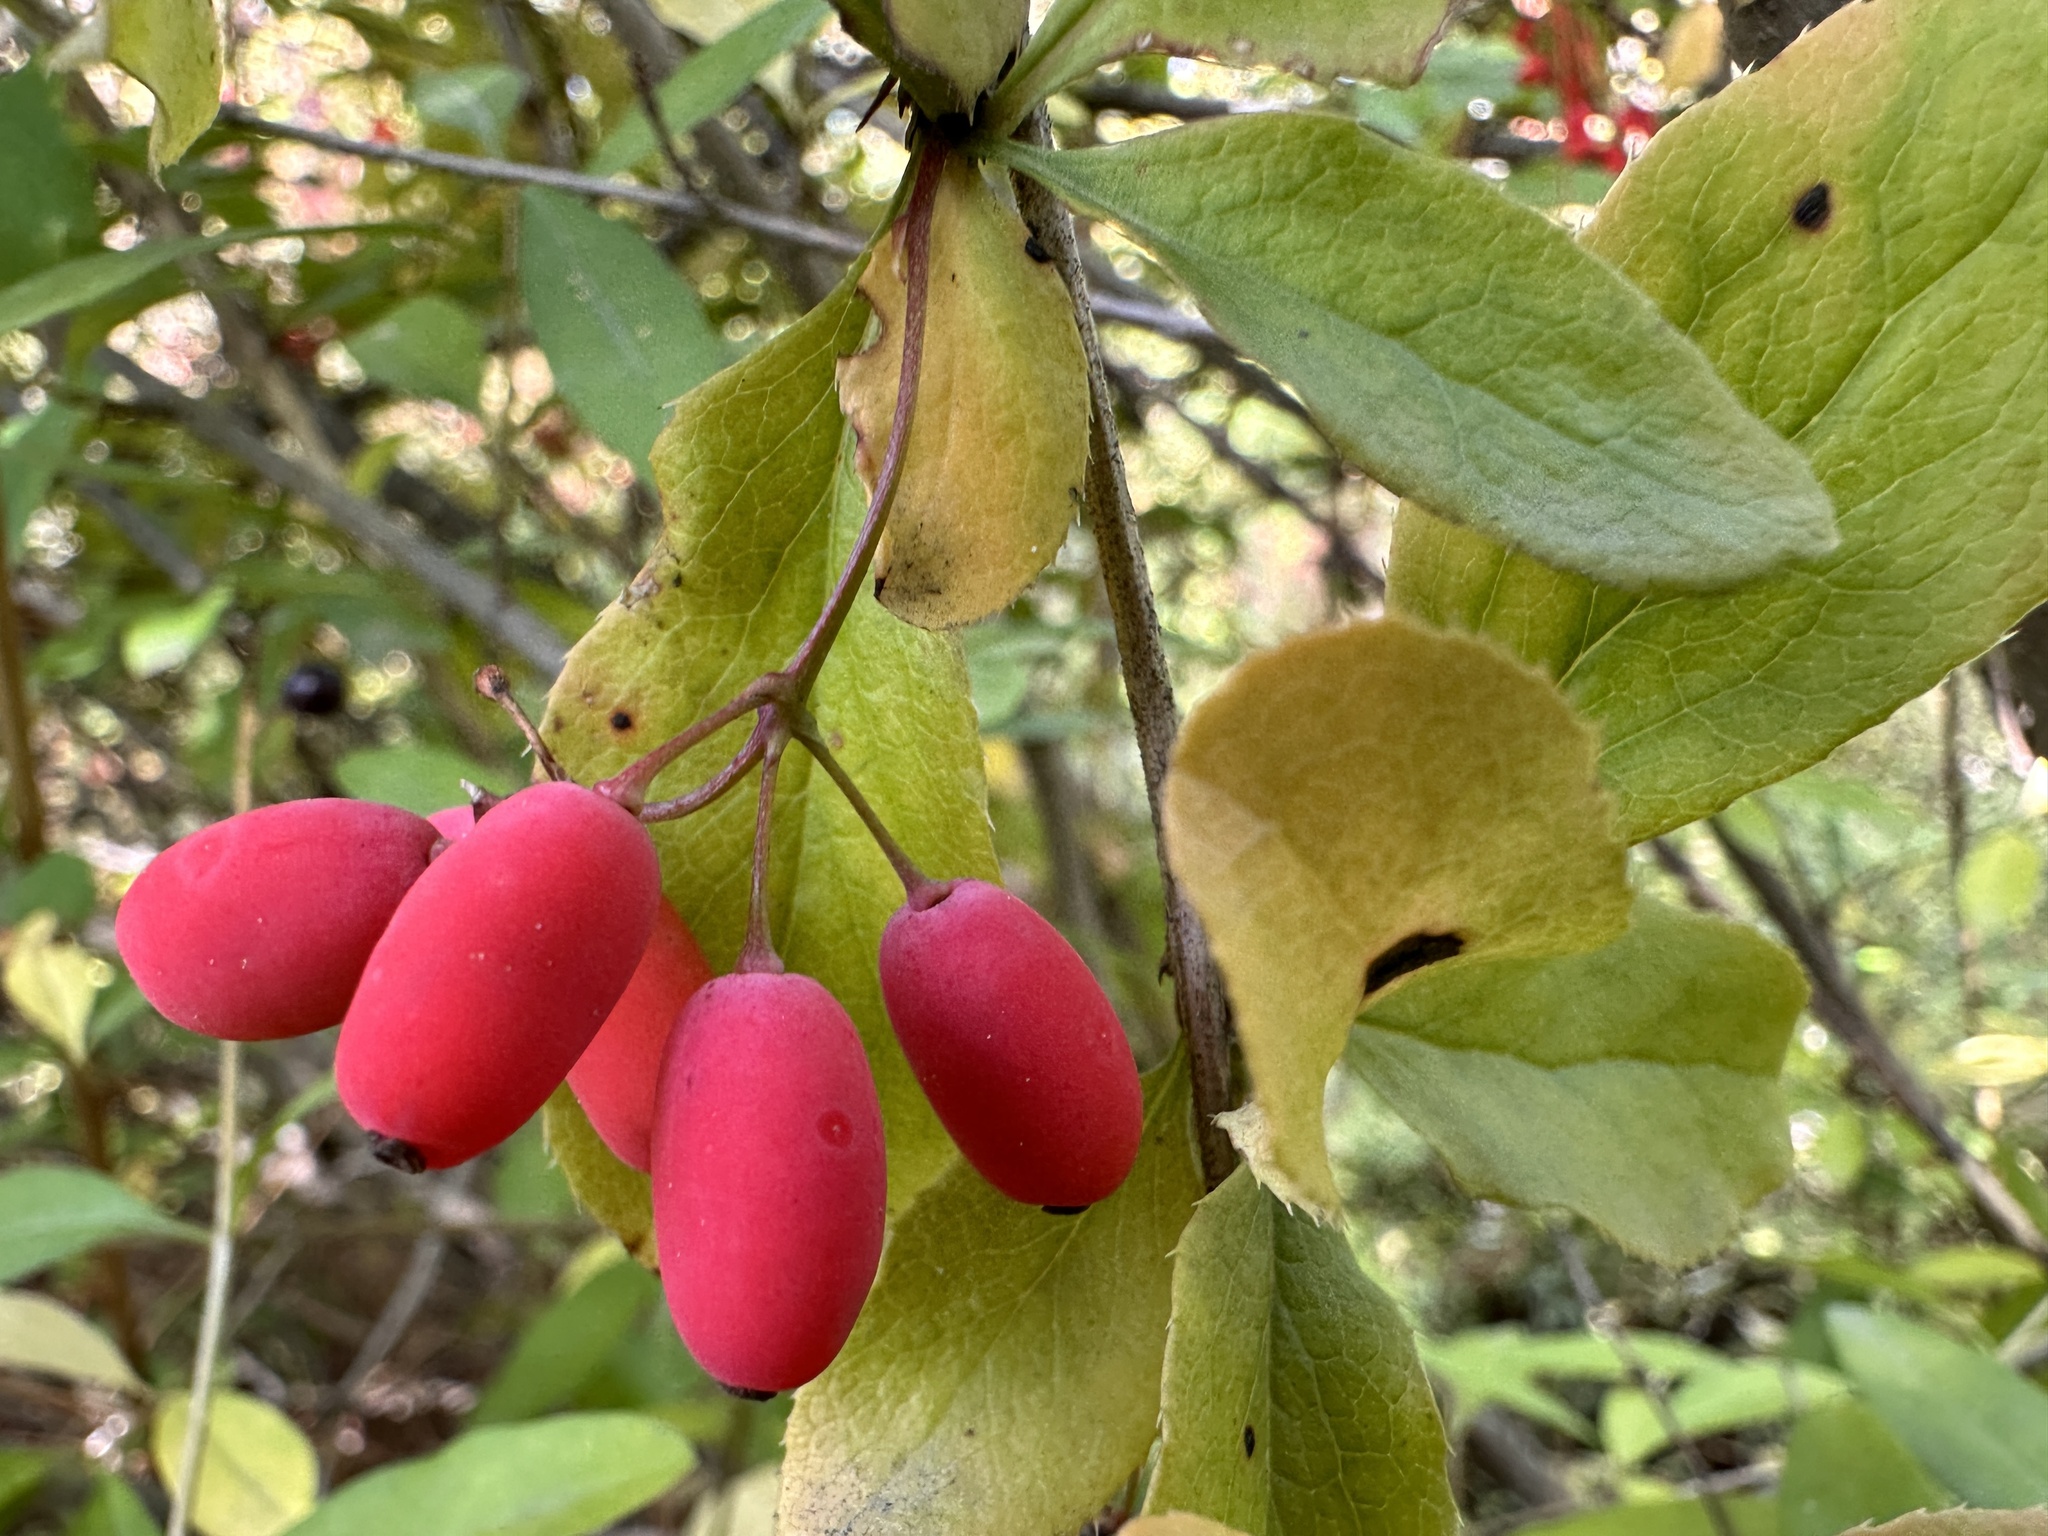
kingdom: Plantae
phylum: Tracheophyta
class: Magnoliopsida
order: Ranunculales
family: Berberidaceae
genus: Berberis
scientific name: Berberis vulgaris
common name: Barberry
